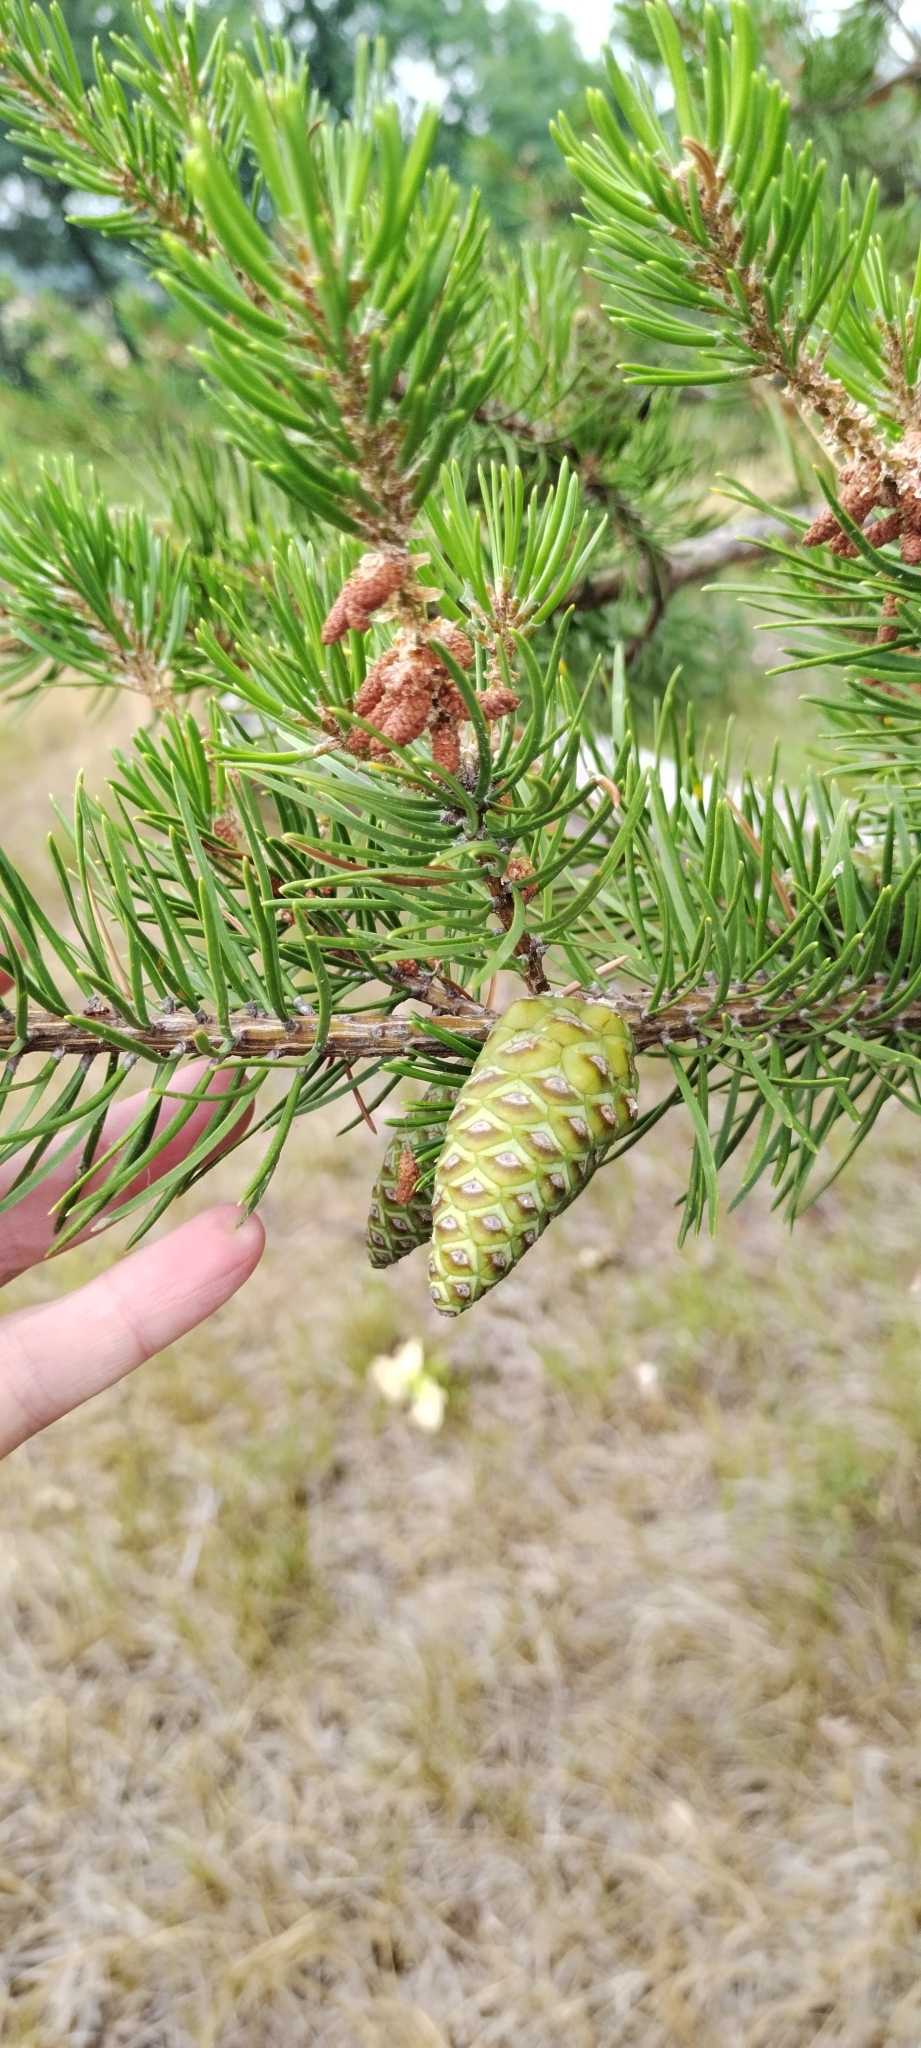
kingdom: Plantae
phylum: Tracheophyta
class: Pinopsida
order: Pinales
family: Pinaceae
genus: Pinus
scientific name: Pinus banksiana
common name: Jack pine
